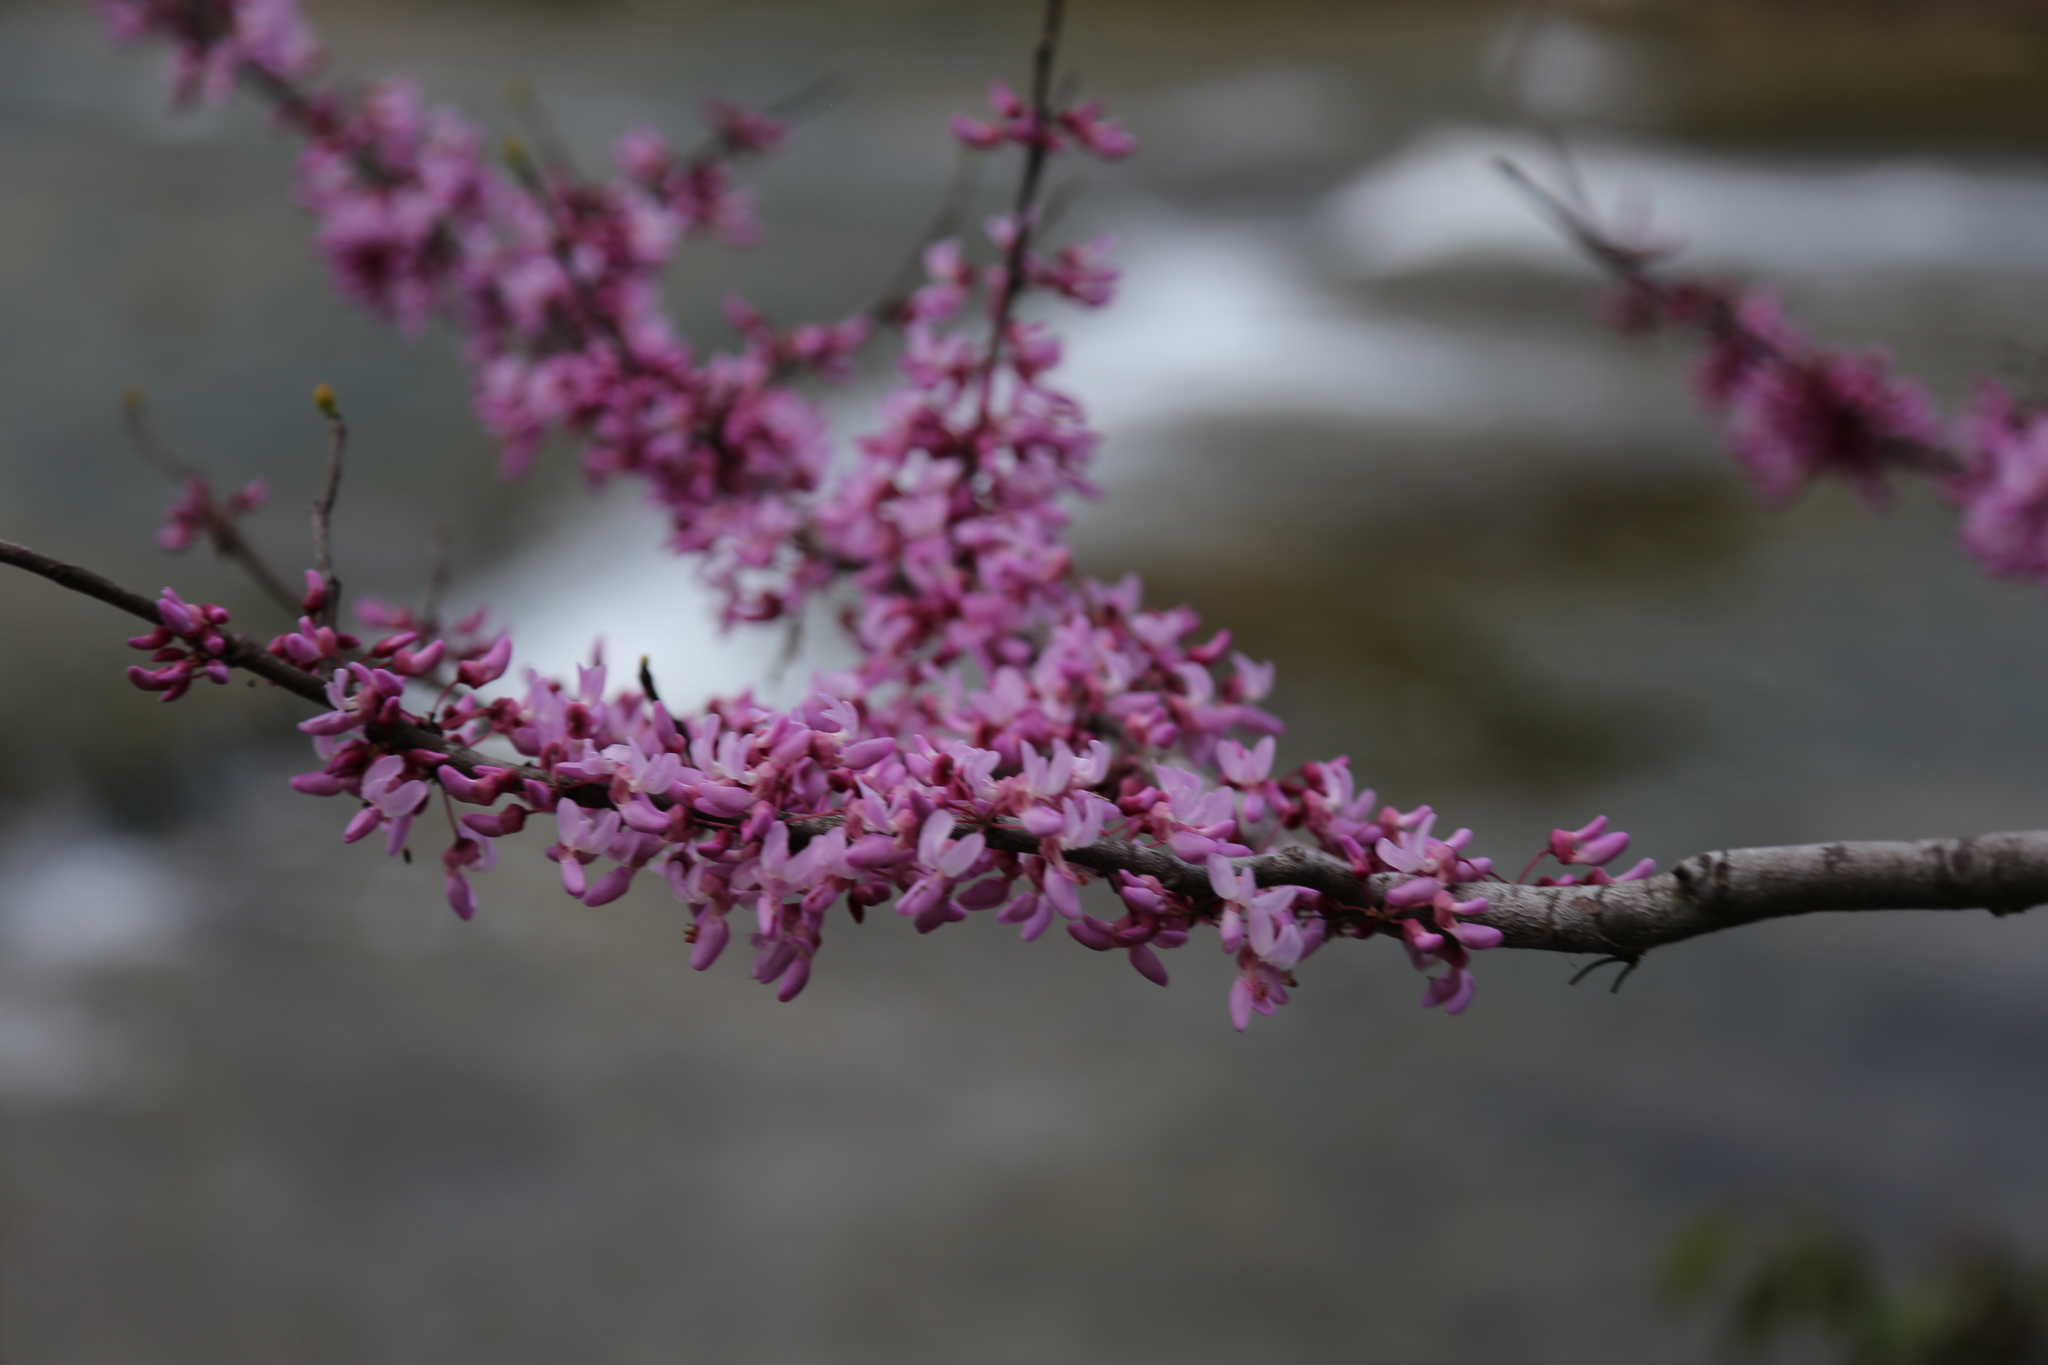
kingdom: Plantae
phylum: Tracheophyta
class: Magnoliopsida
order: Fabales
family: Fabaceae
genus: Cercis
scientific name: Cercis canadensis
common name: Eastern redbud
